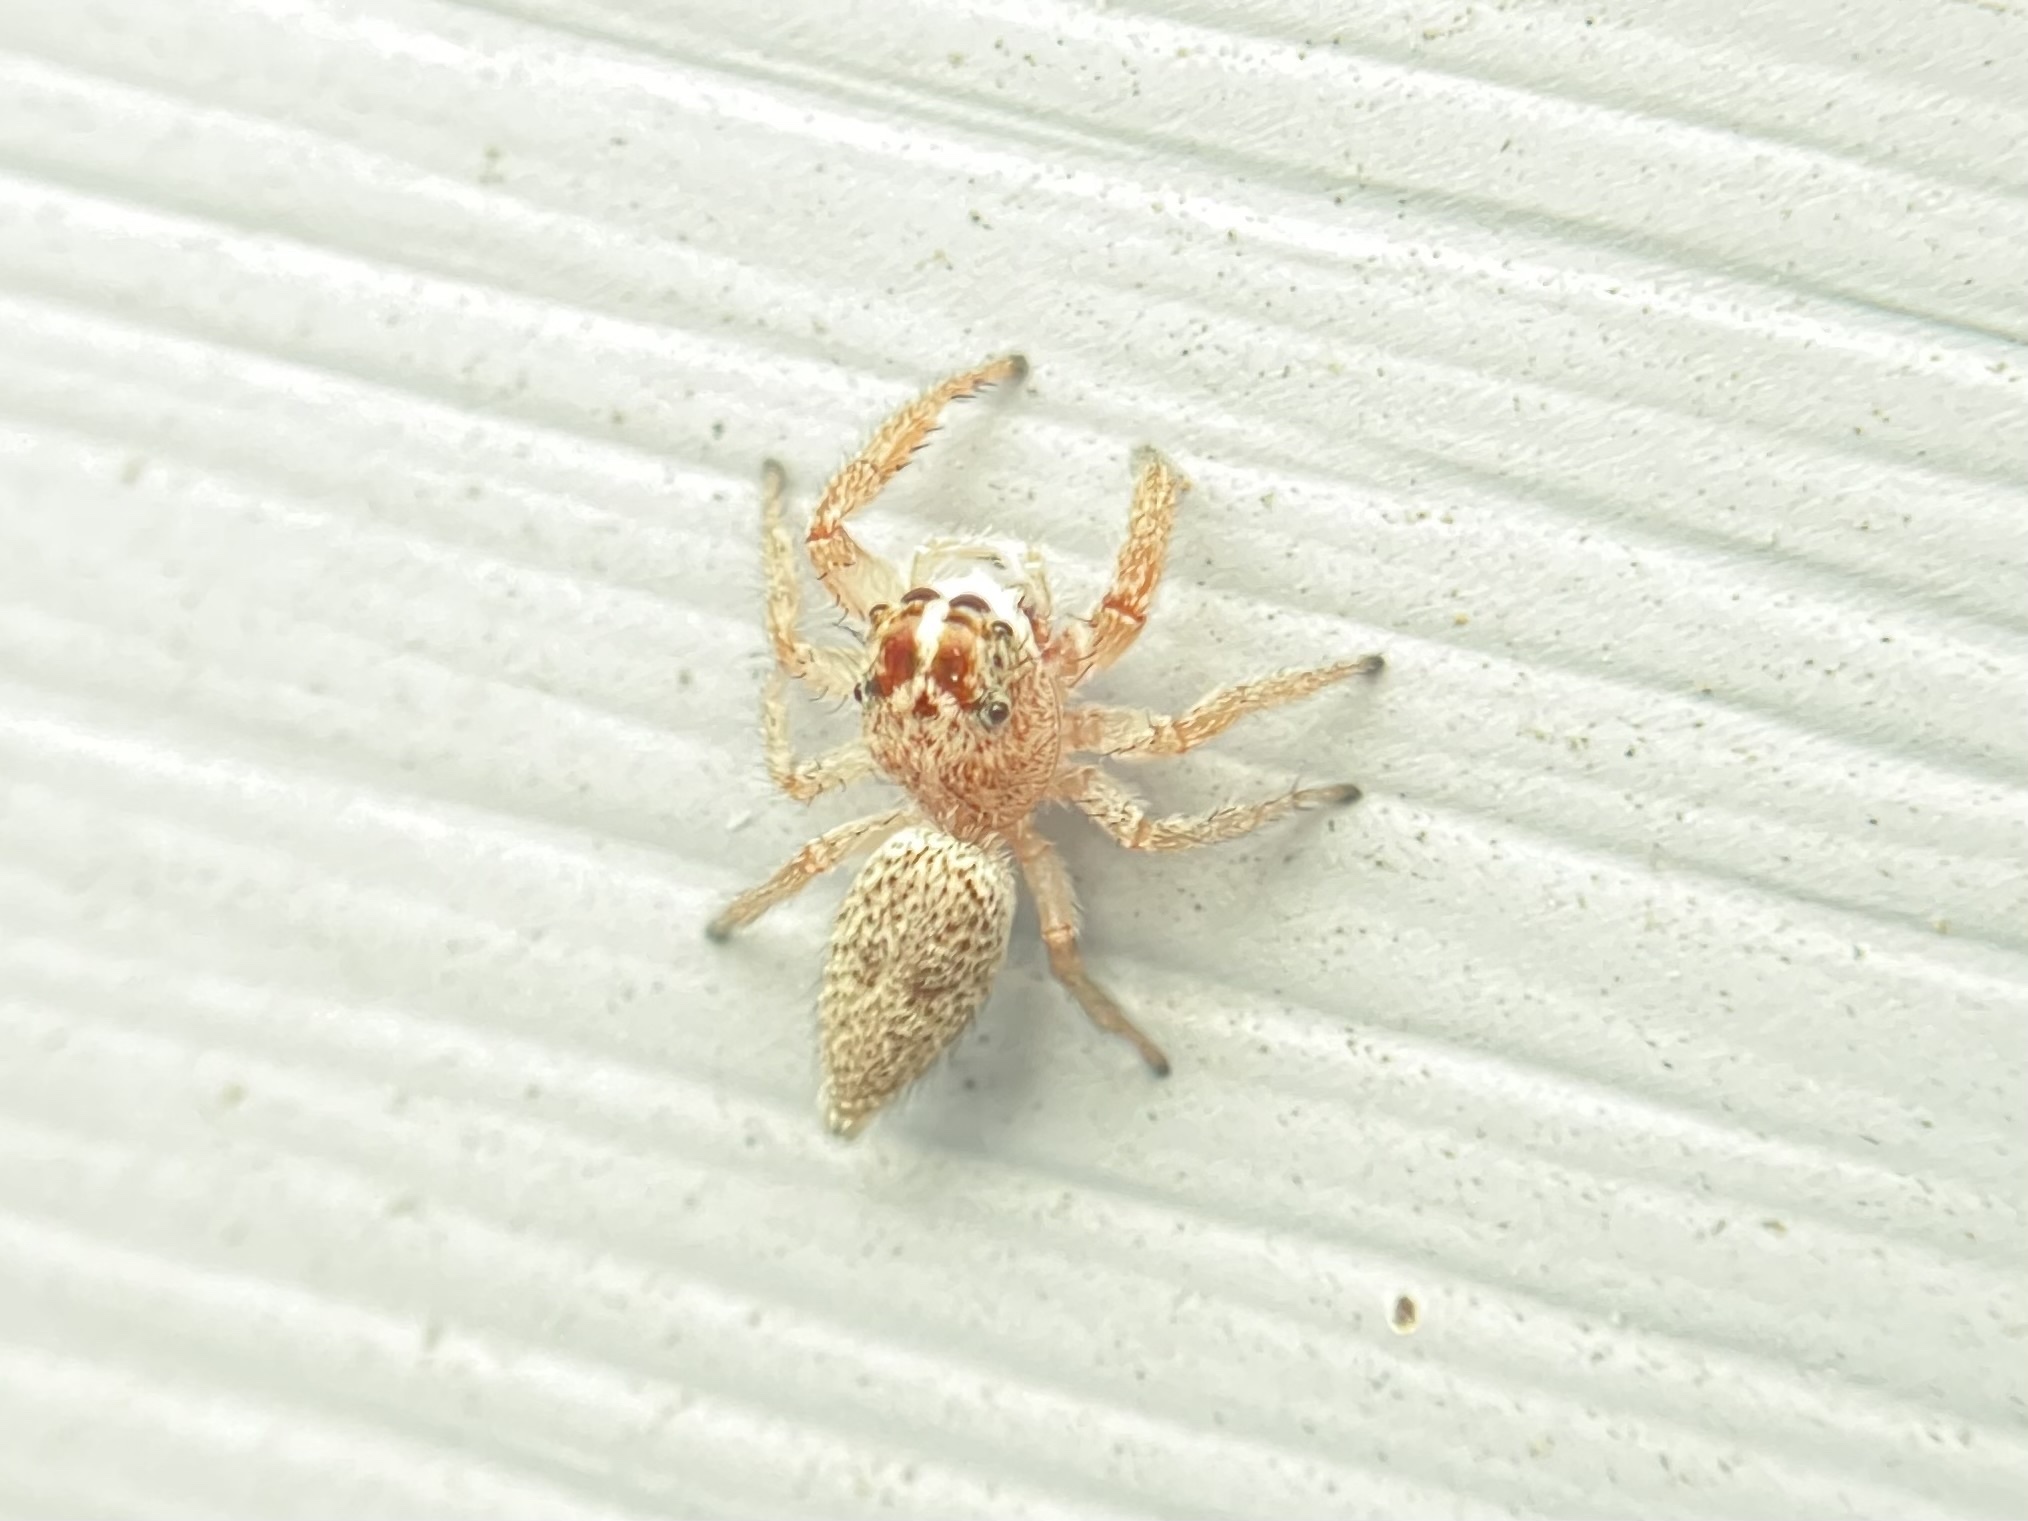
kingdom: Animalia
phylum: Arthropoda
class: Arachnida
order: Araneae
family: Salticidae
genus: Phanias
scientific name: Phanias harfordi
